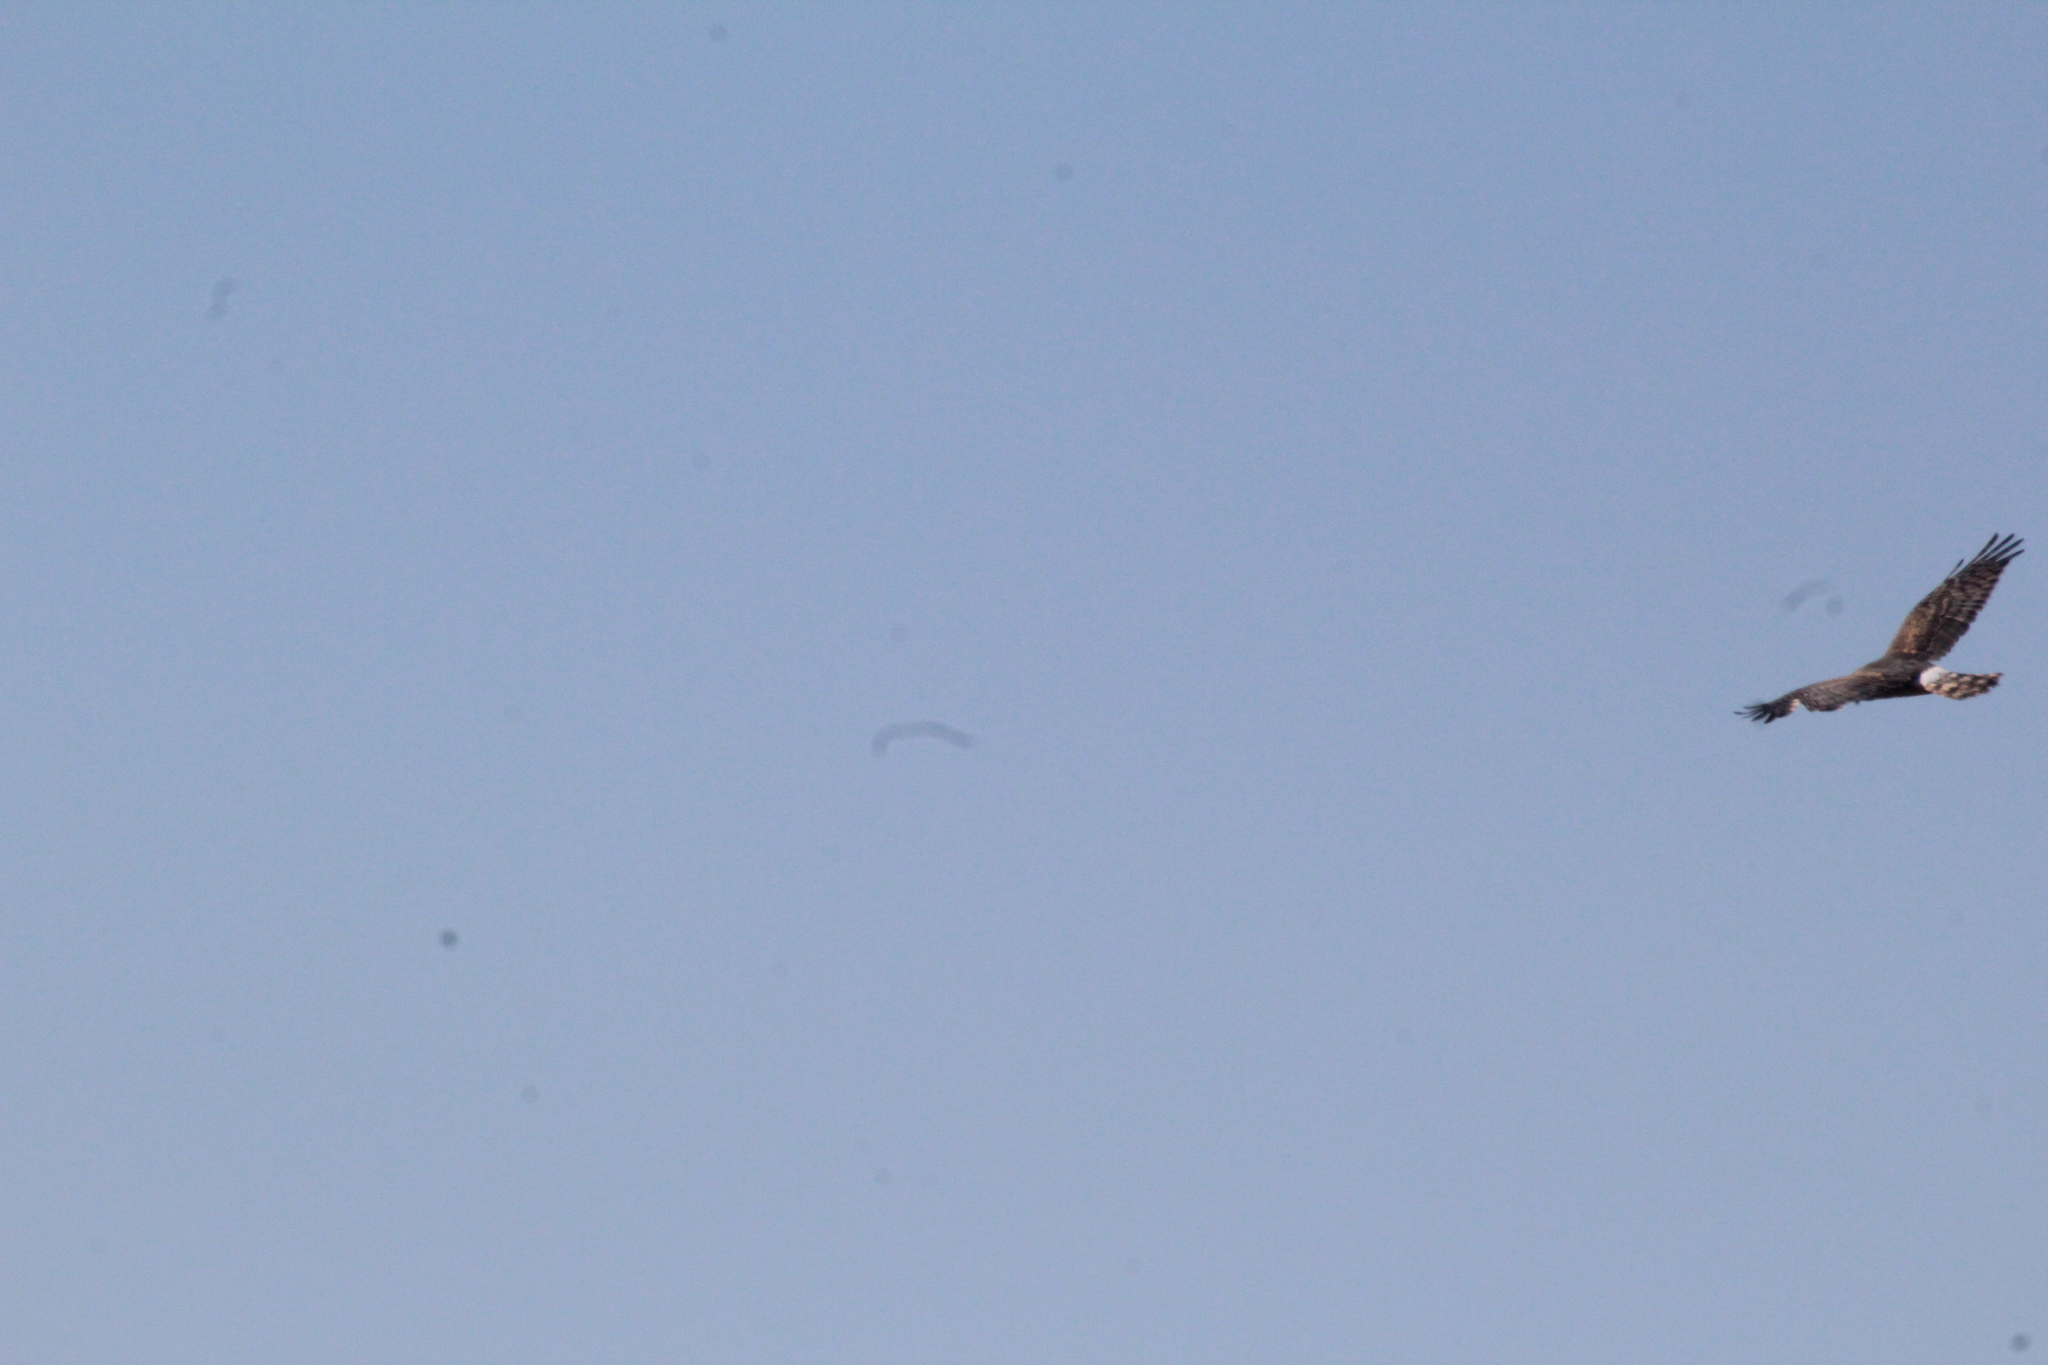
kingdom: Animalia
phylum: Chordata
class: Aves
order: Accipitriformes
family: Accipitridae
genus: Circus
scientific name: Circus cyaneus
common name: Hen harrier
